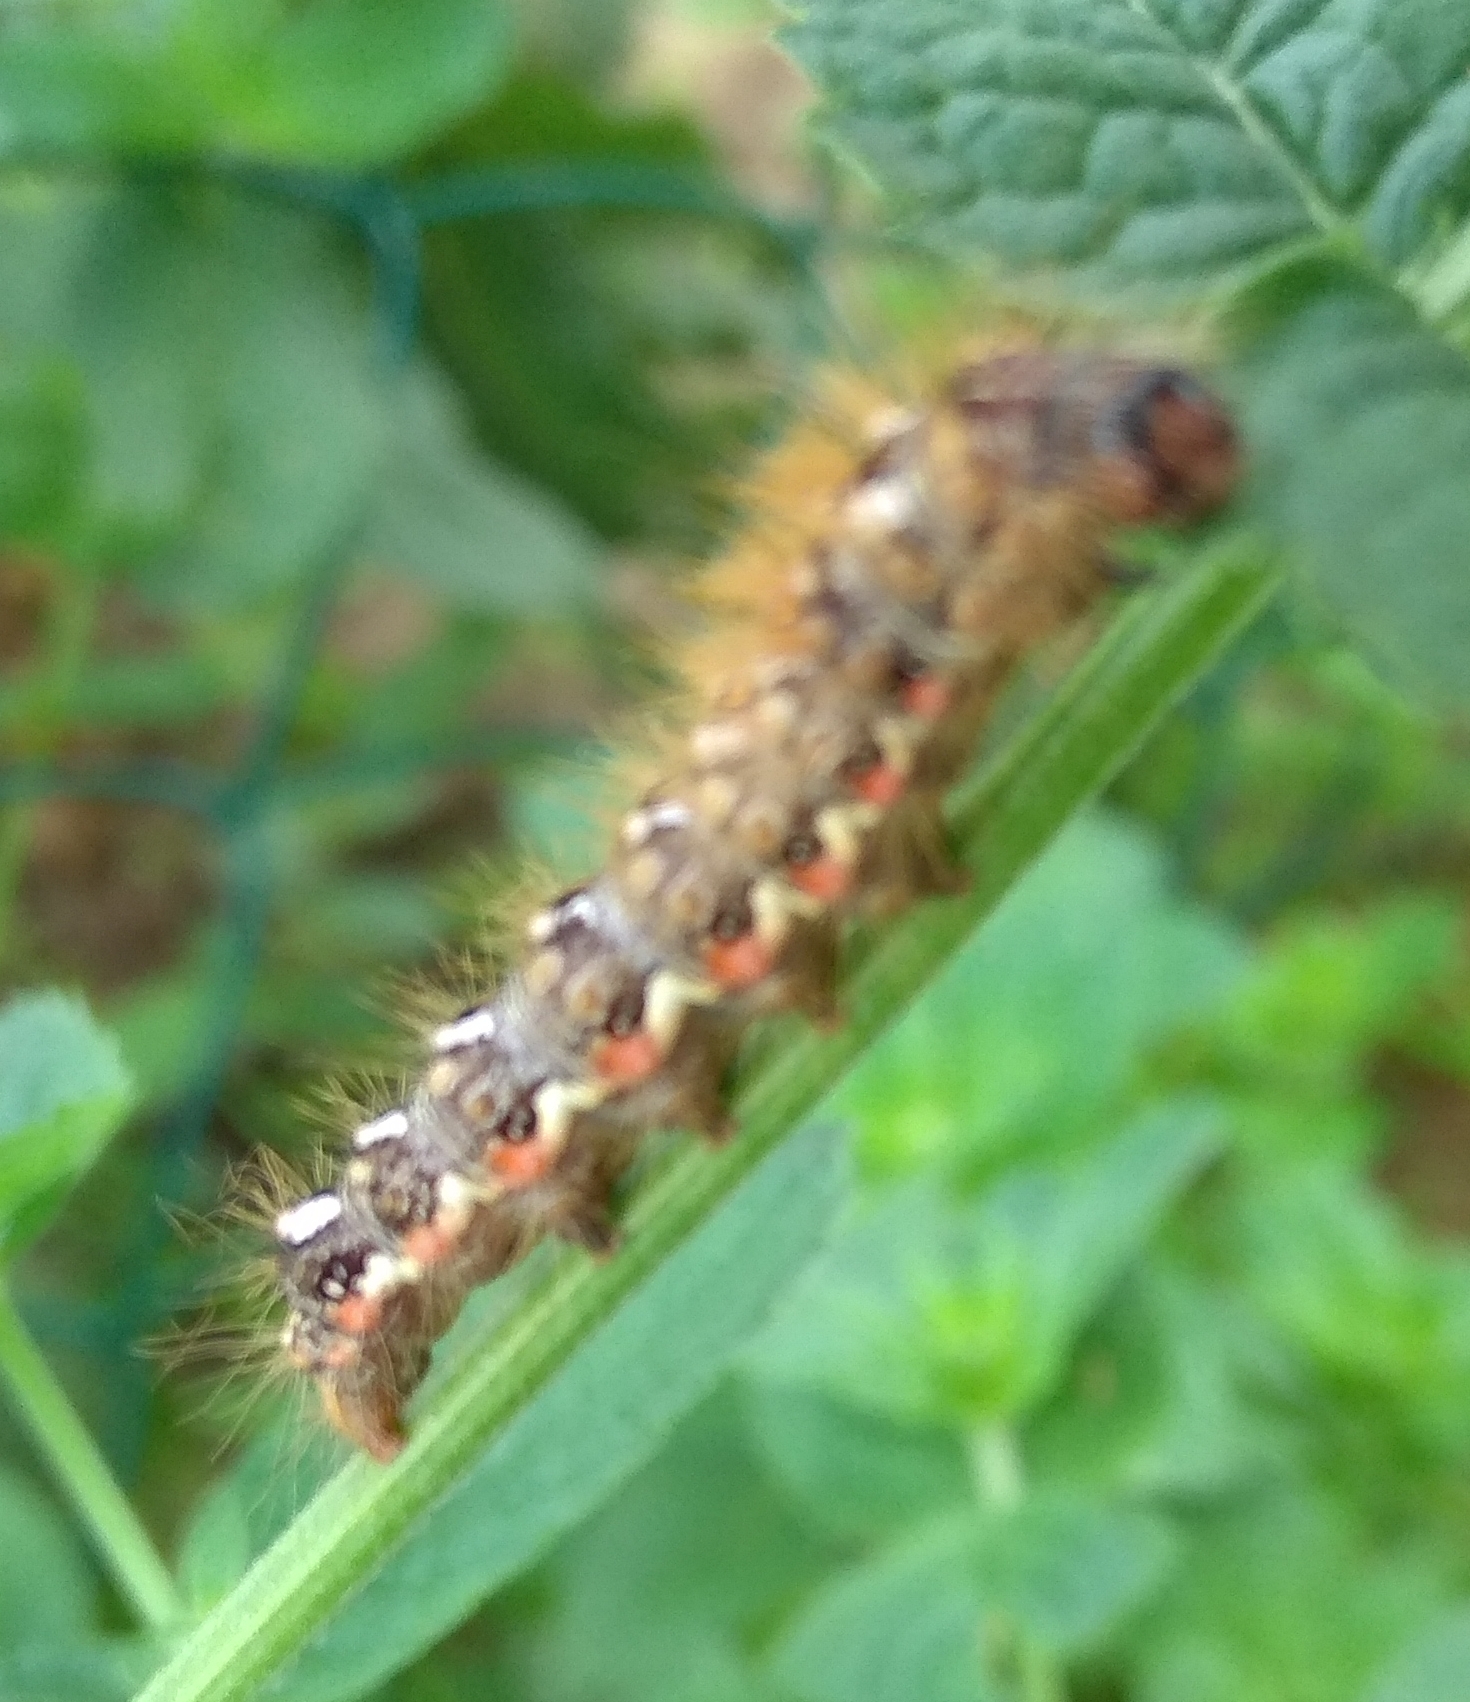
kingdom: Animalia
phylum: Arthropoda
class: Insecta
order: Lepidoptera
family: Noctuidae
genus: Acronicta
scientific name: Acronicta rumicis
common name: Knot grass
